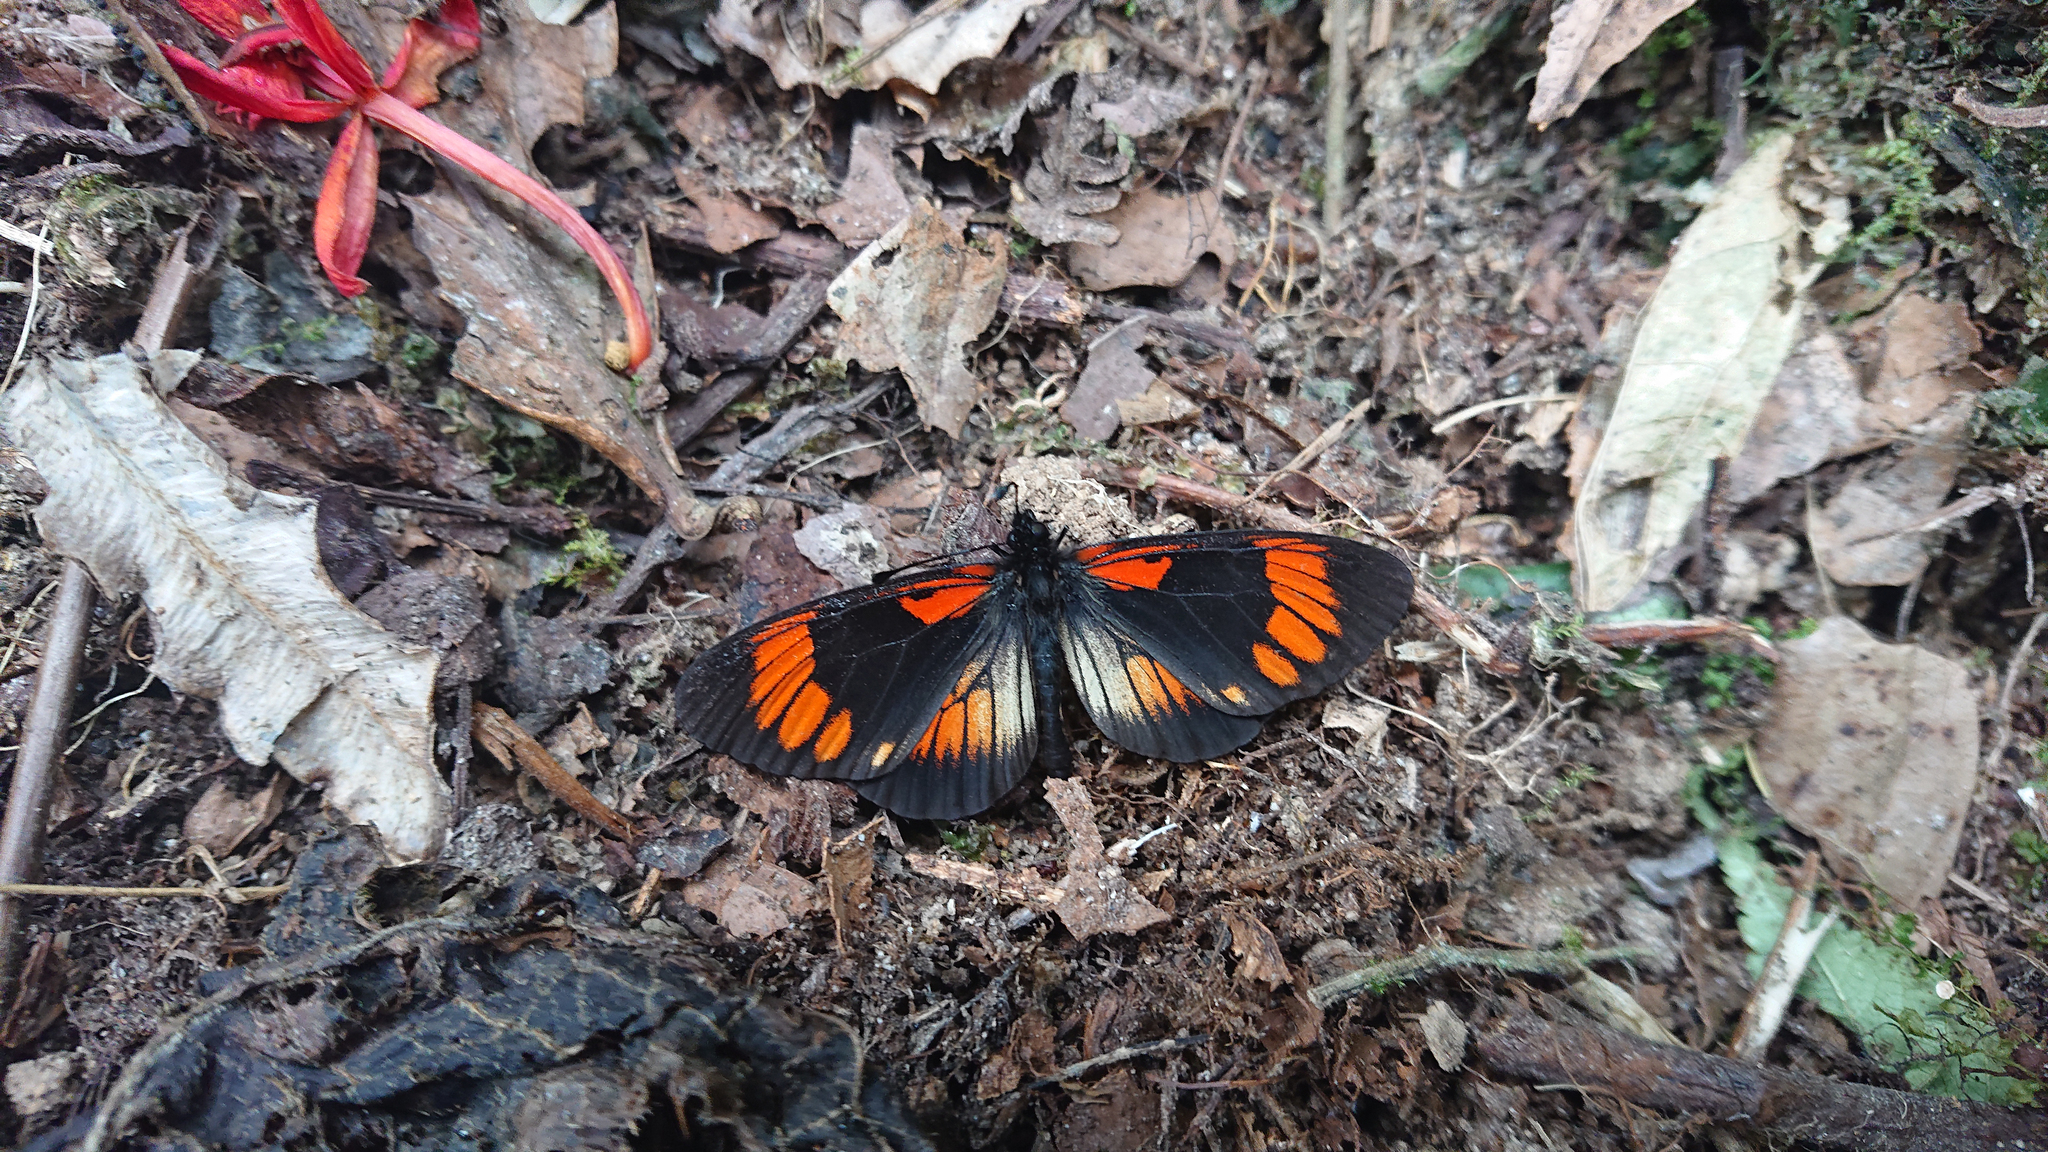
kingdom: Animalia
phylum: Arthropoda
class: Insecta
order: Lepidoptera
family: Nymphalidae
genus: Actinote
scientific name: Actinote
